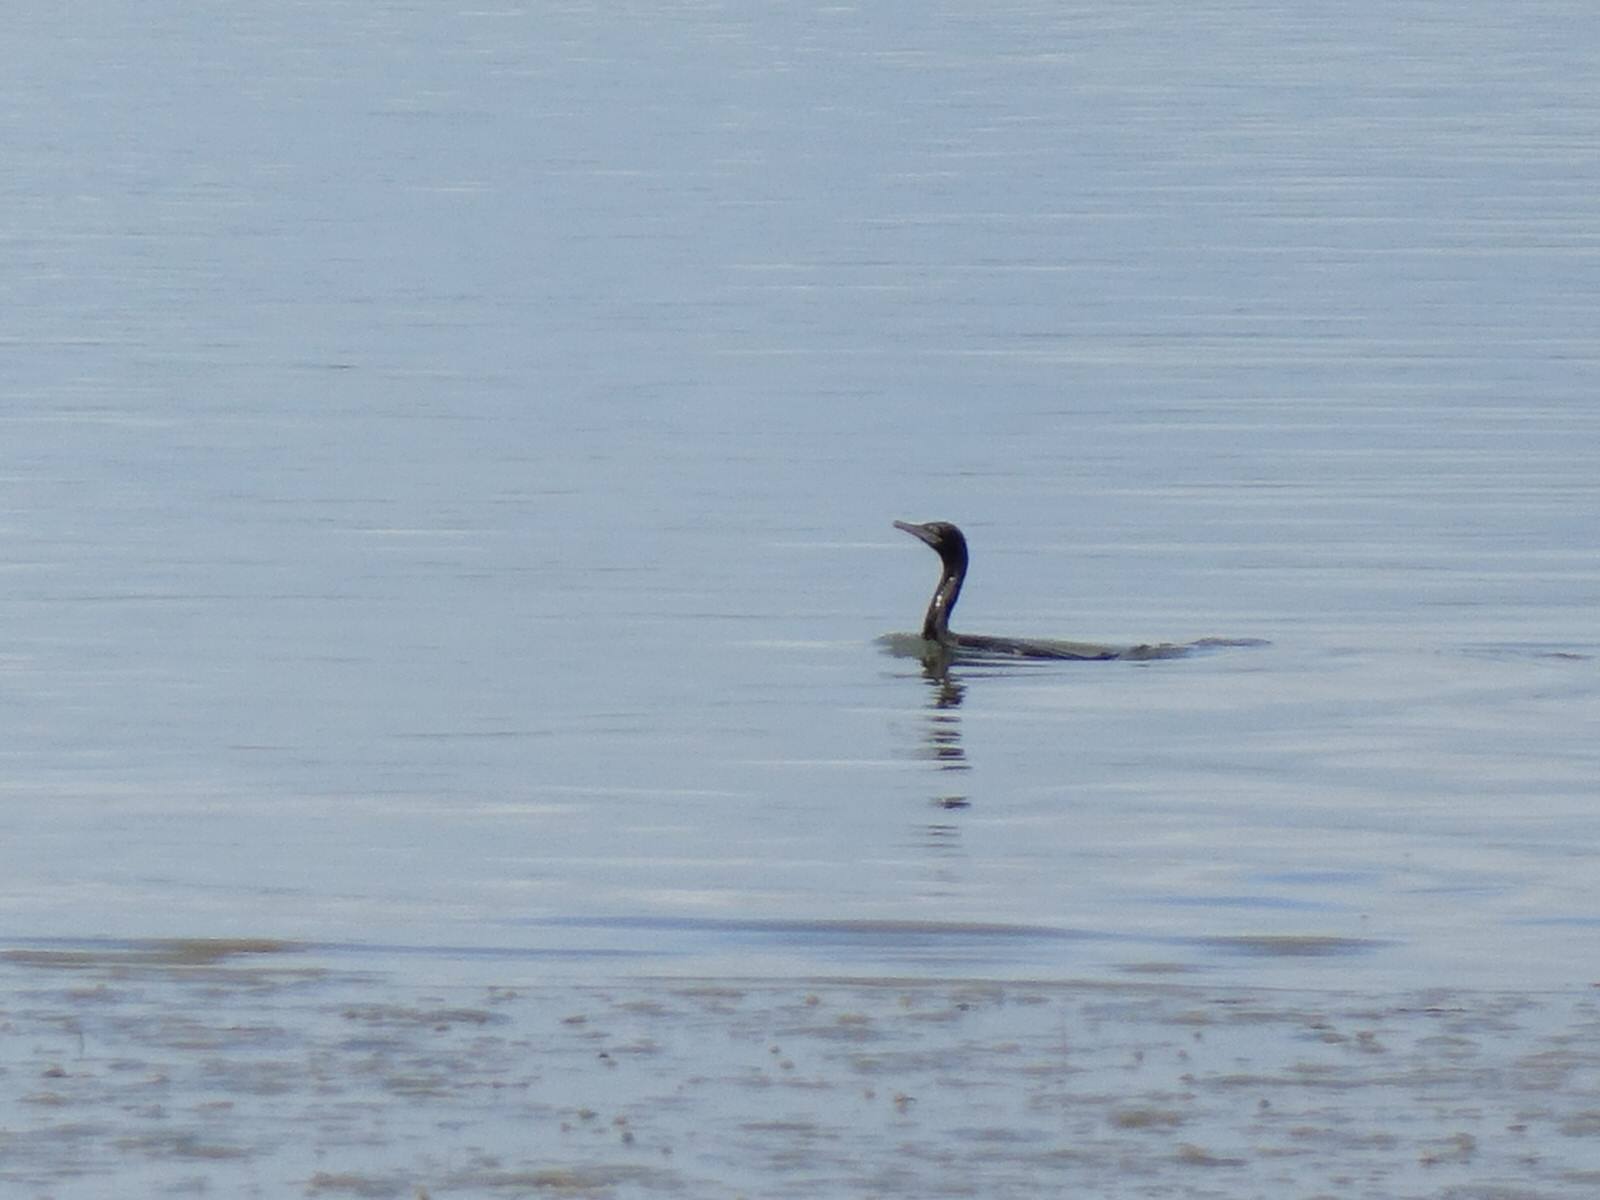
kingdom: Animalia
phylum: Chordata
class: Aves
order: Suliformes
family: Phalacrocoracidae
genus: Phalacrocorax
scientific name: Phalacrocorax sulcirostris
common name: Little black cormorant
